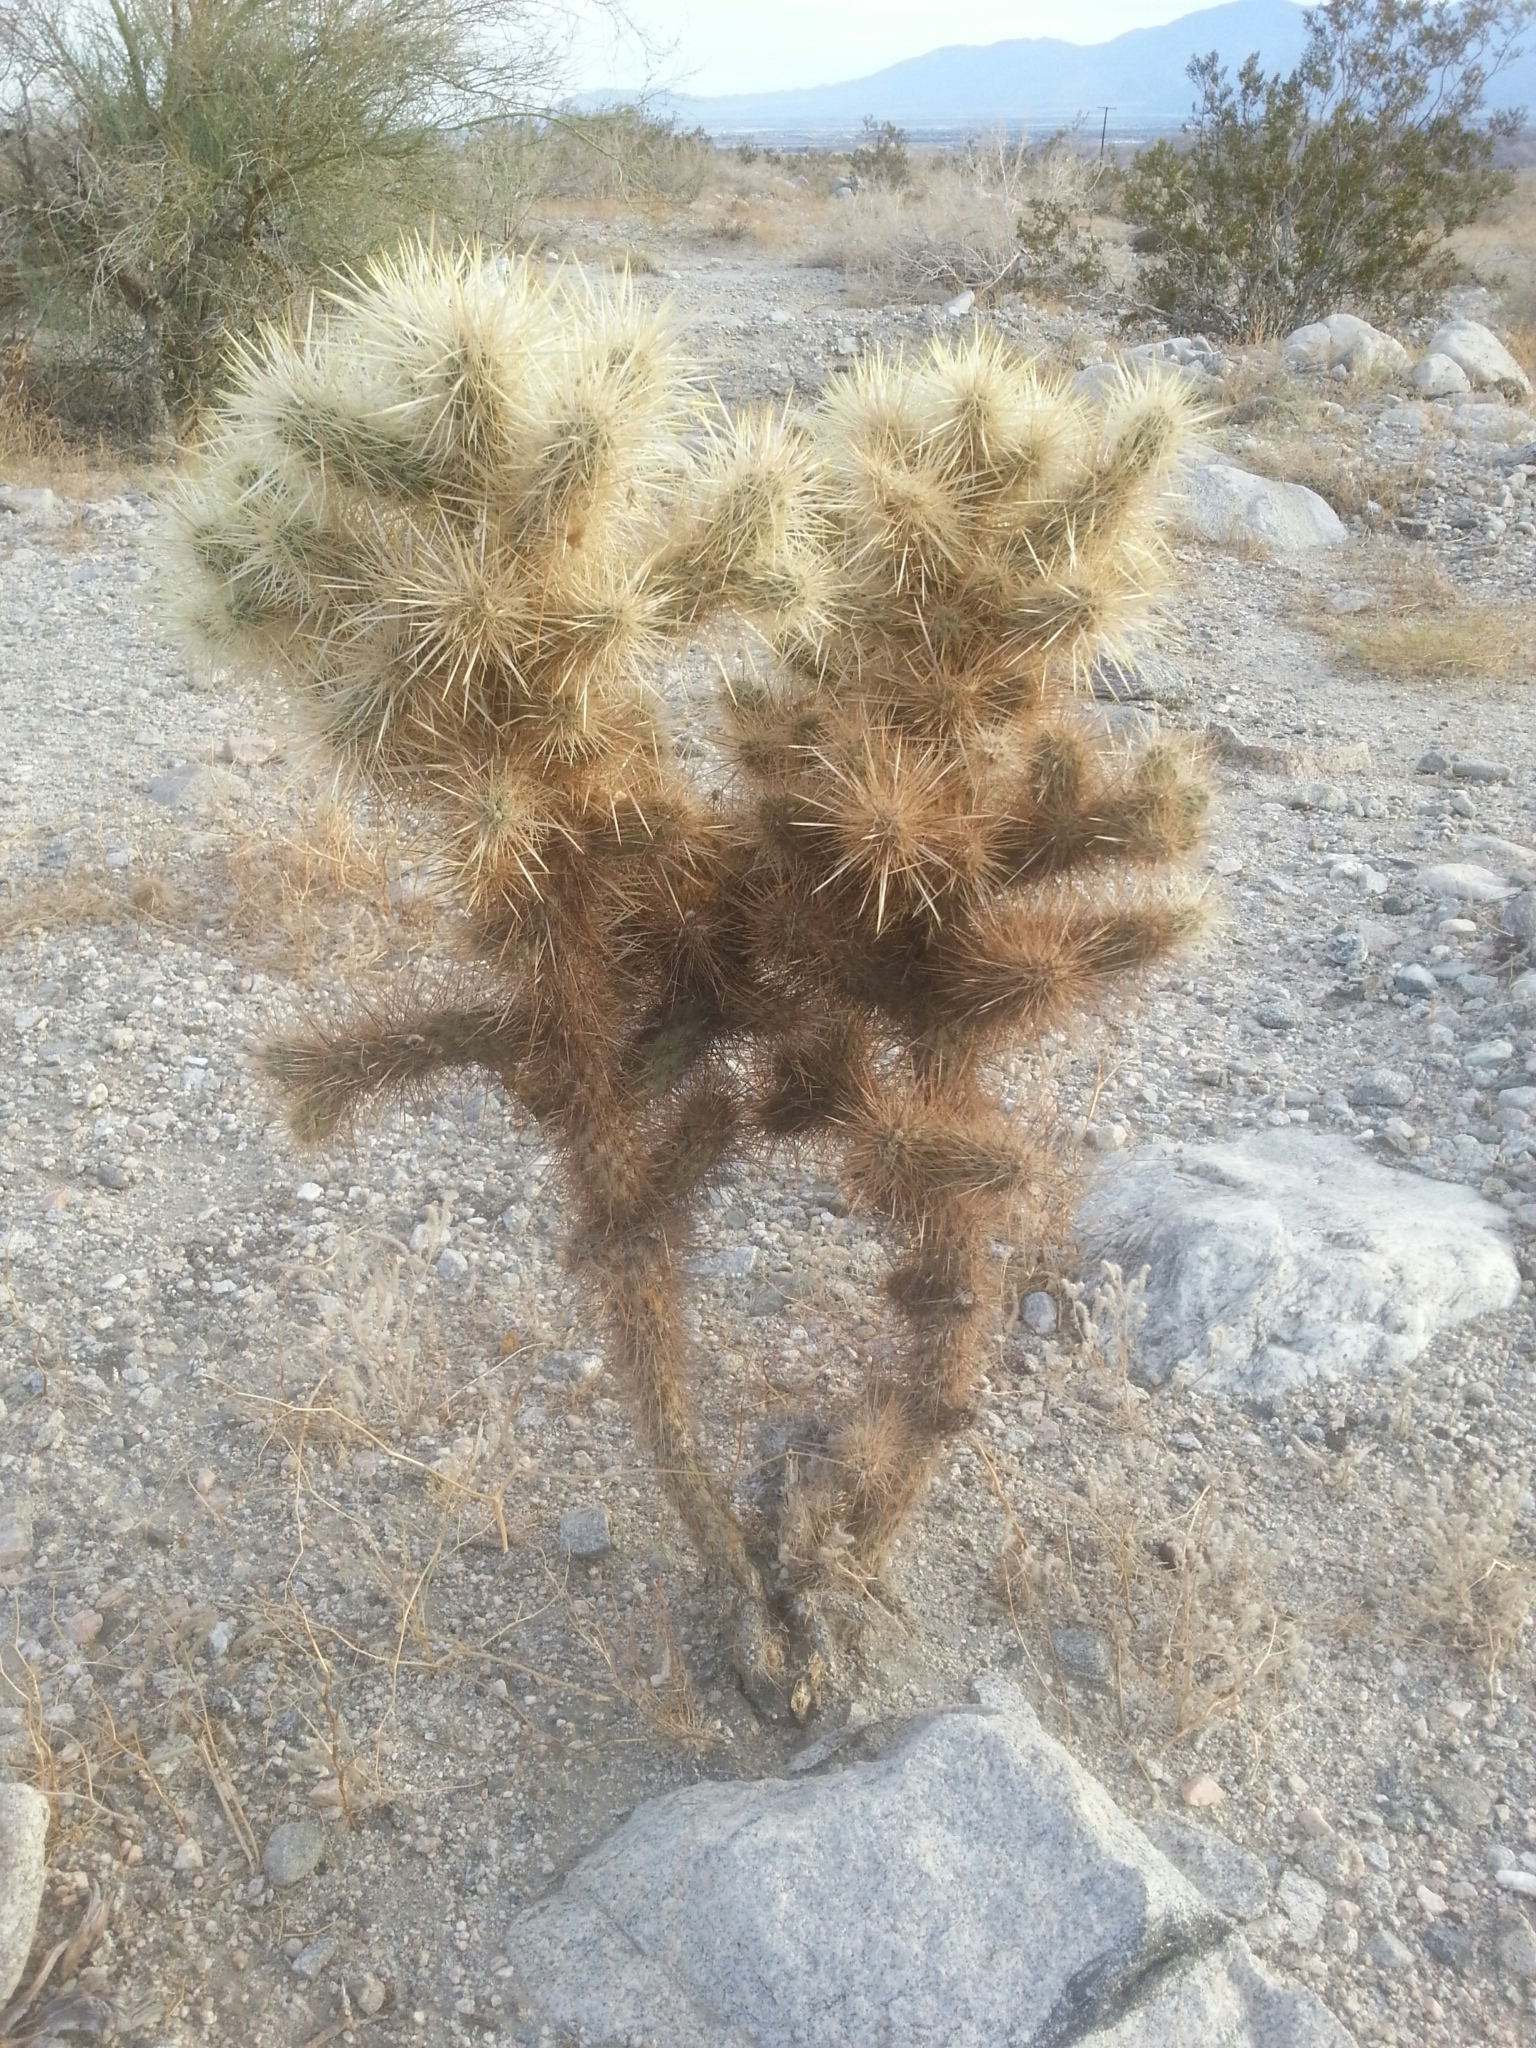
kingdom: Plantae
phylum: Tracheophyta
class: Magnoliopsida
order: Caryophyllales
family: Cactaceae
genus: Cylindropuntia
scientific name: Cylindropuntia echinocarpa
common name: Ground cholla
